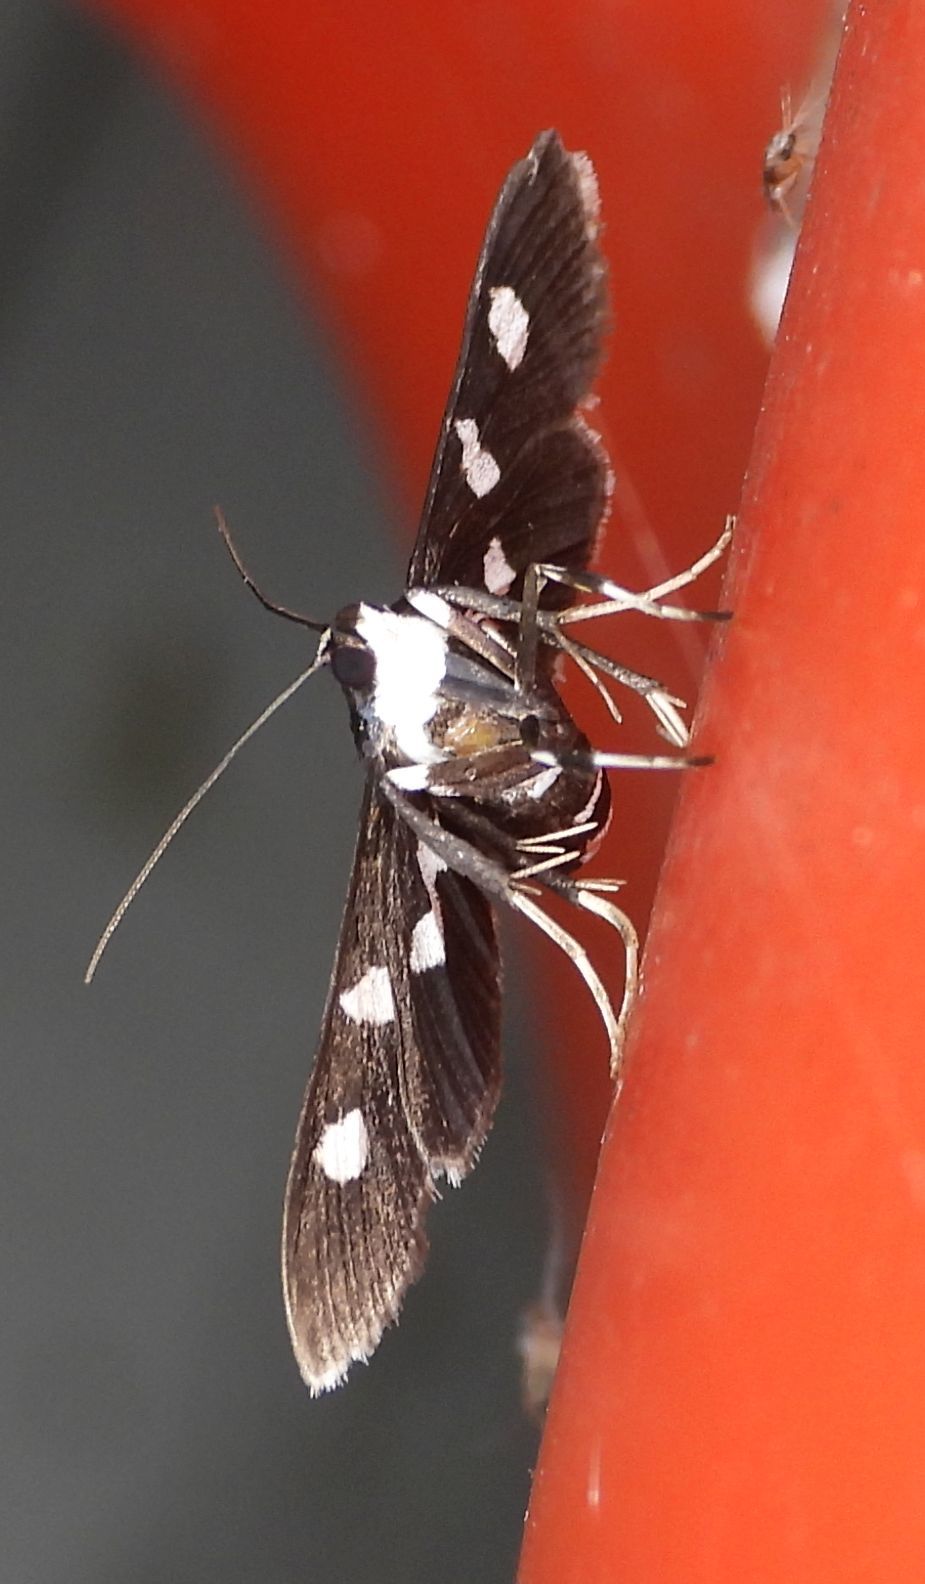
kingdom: Animalia
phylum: Arthropoda
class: Insecta
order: Lepidoptera
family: Crambidae
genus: Desmia
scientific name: Desmia
